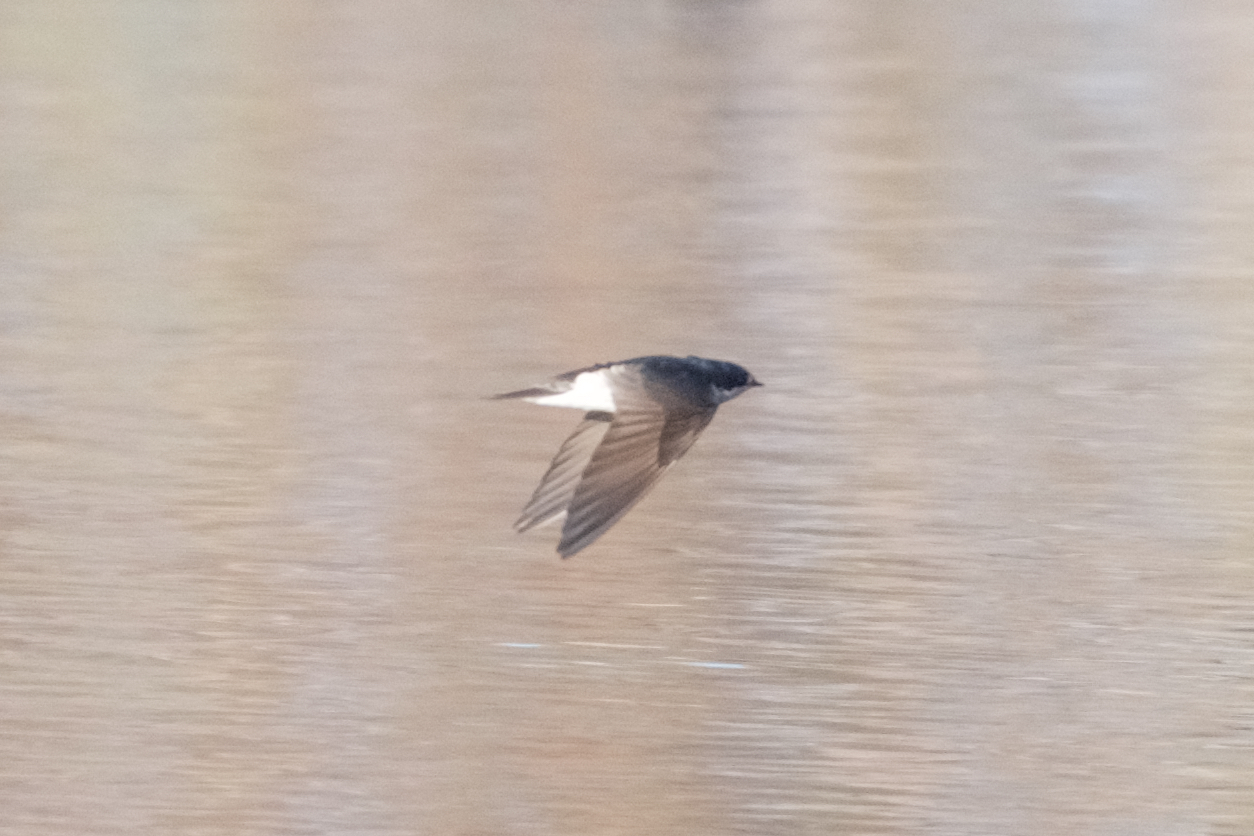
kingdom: Animalia
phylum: Chordata
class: Aves
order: Passeriformes
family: Hirundinidae
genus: Tachycineta
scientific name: Tachycineta bicolor
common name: Tree swallow
